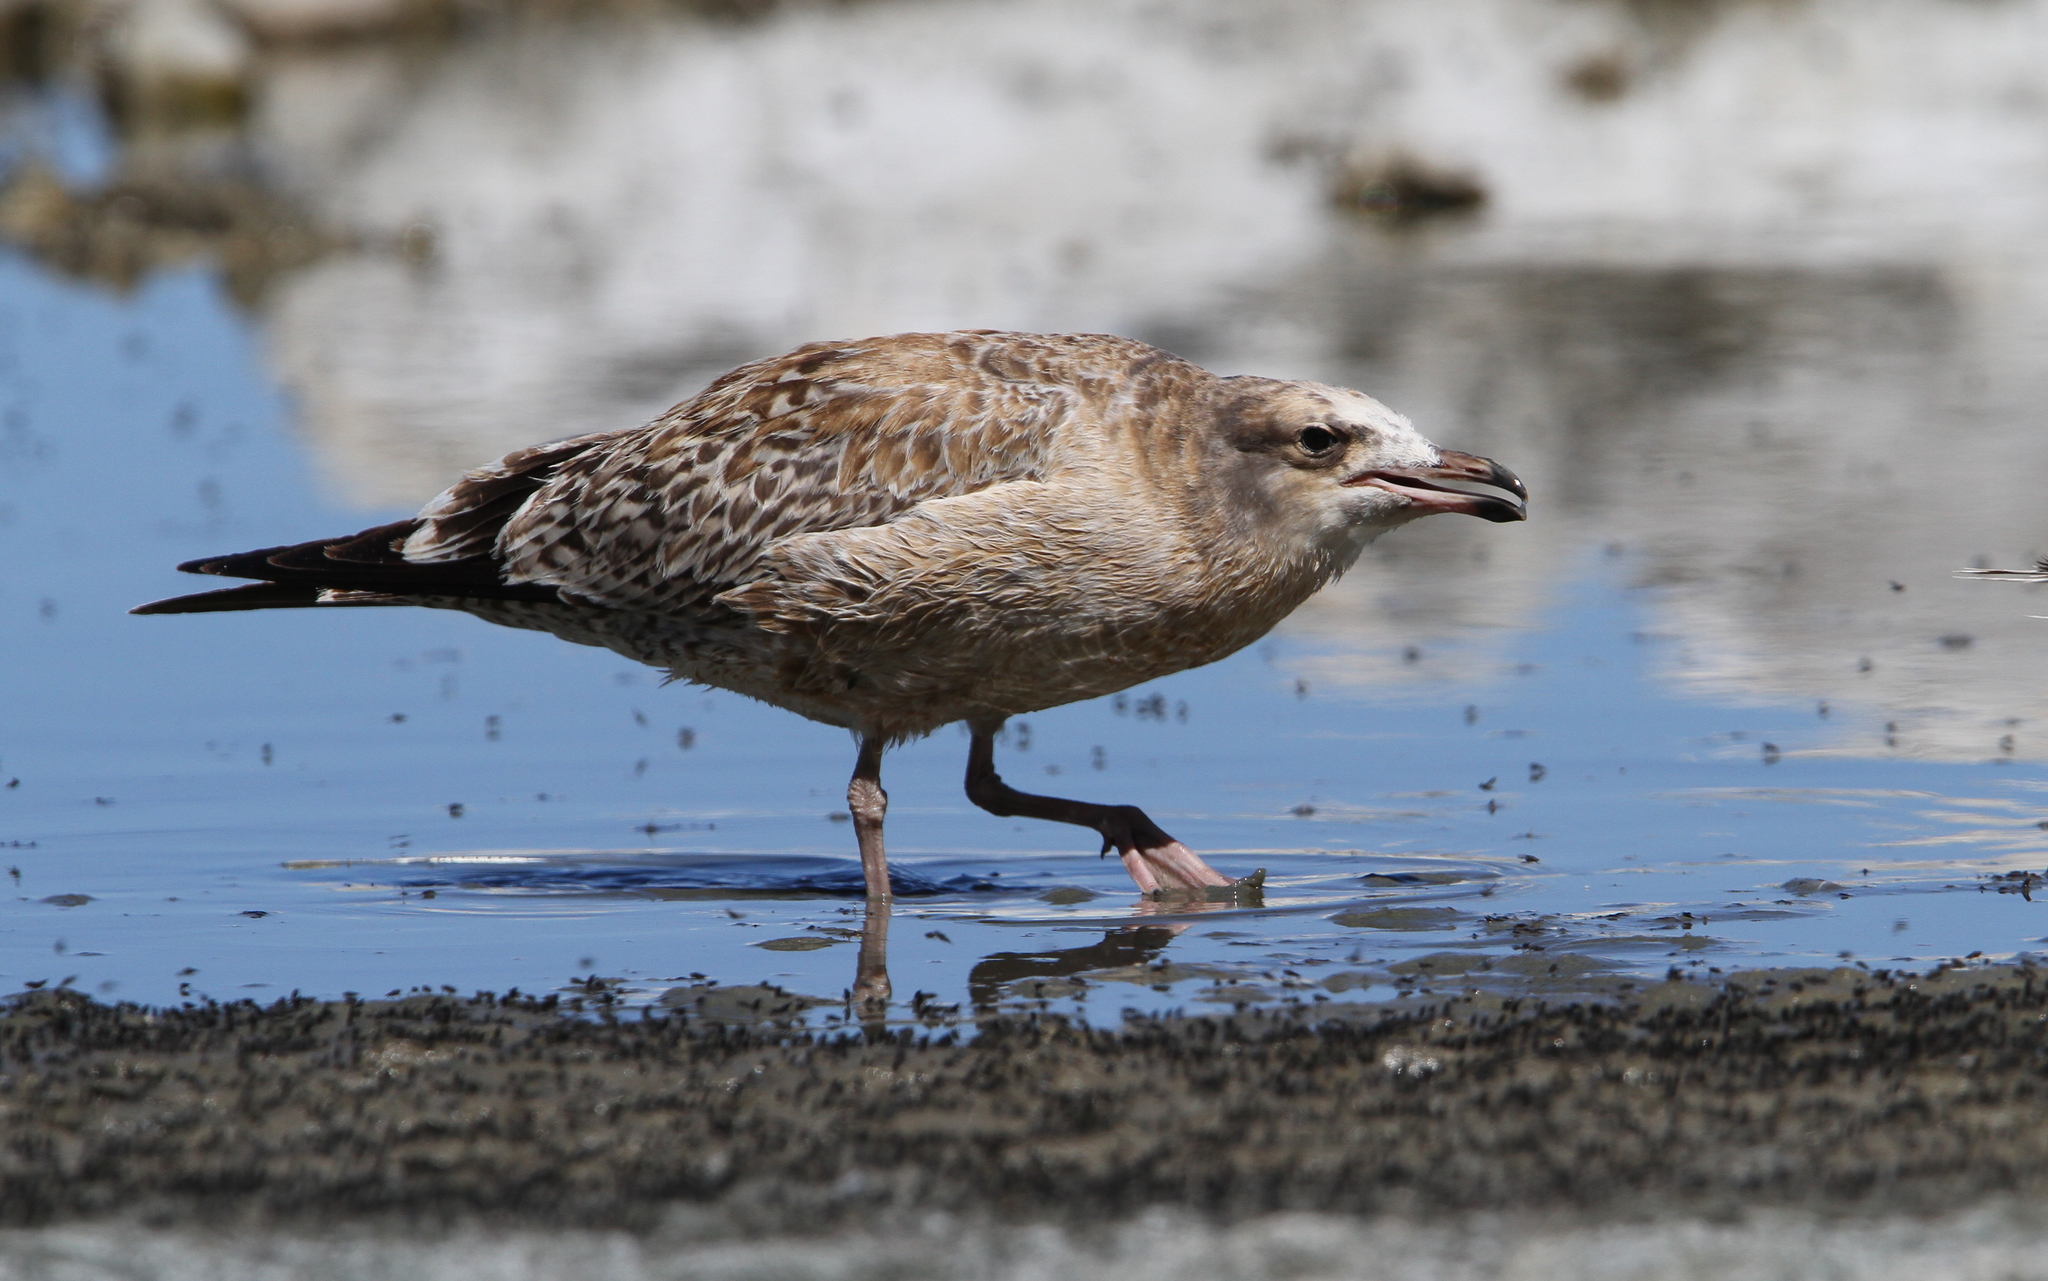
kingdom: Animalia
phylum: Chordata
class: Aves
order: Charadriiformes
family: Laridae
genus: Larus
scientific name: Larus californicus
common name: California gull
